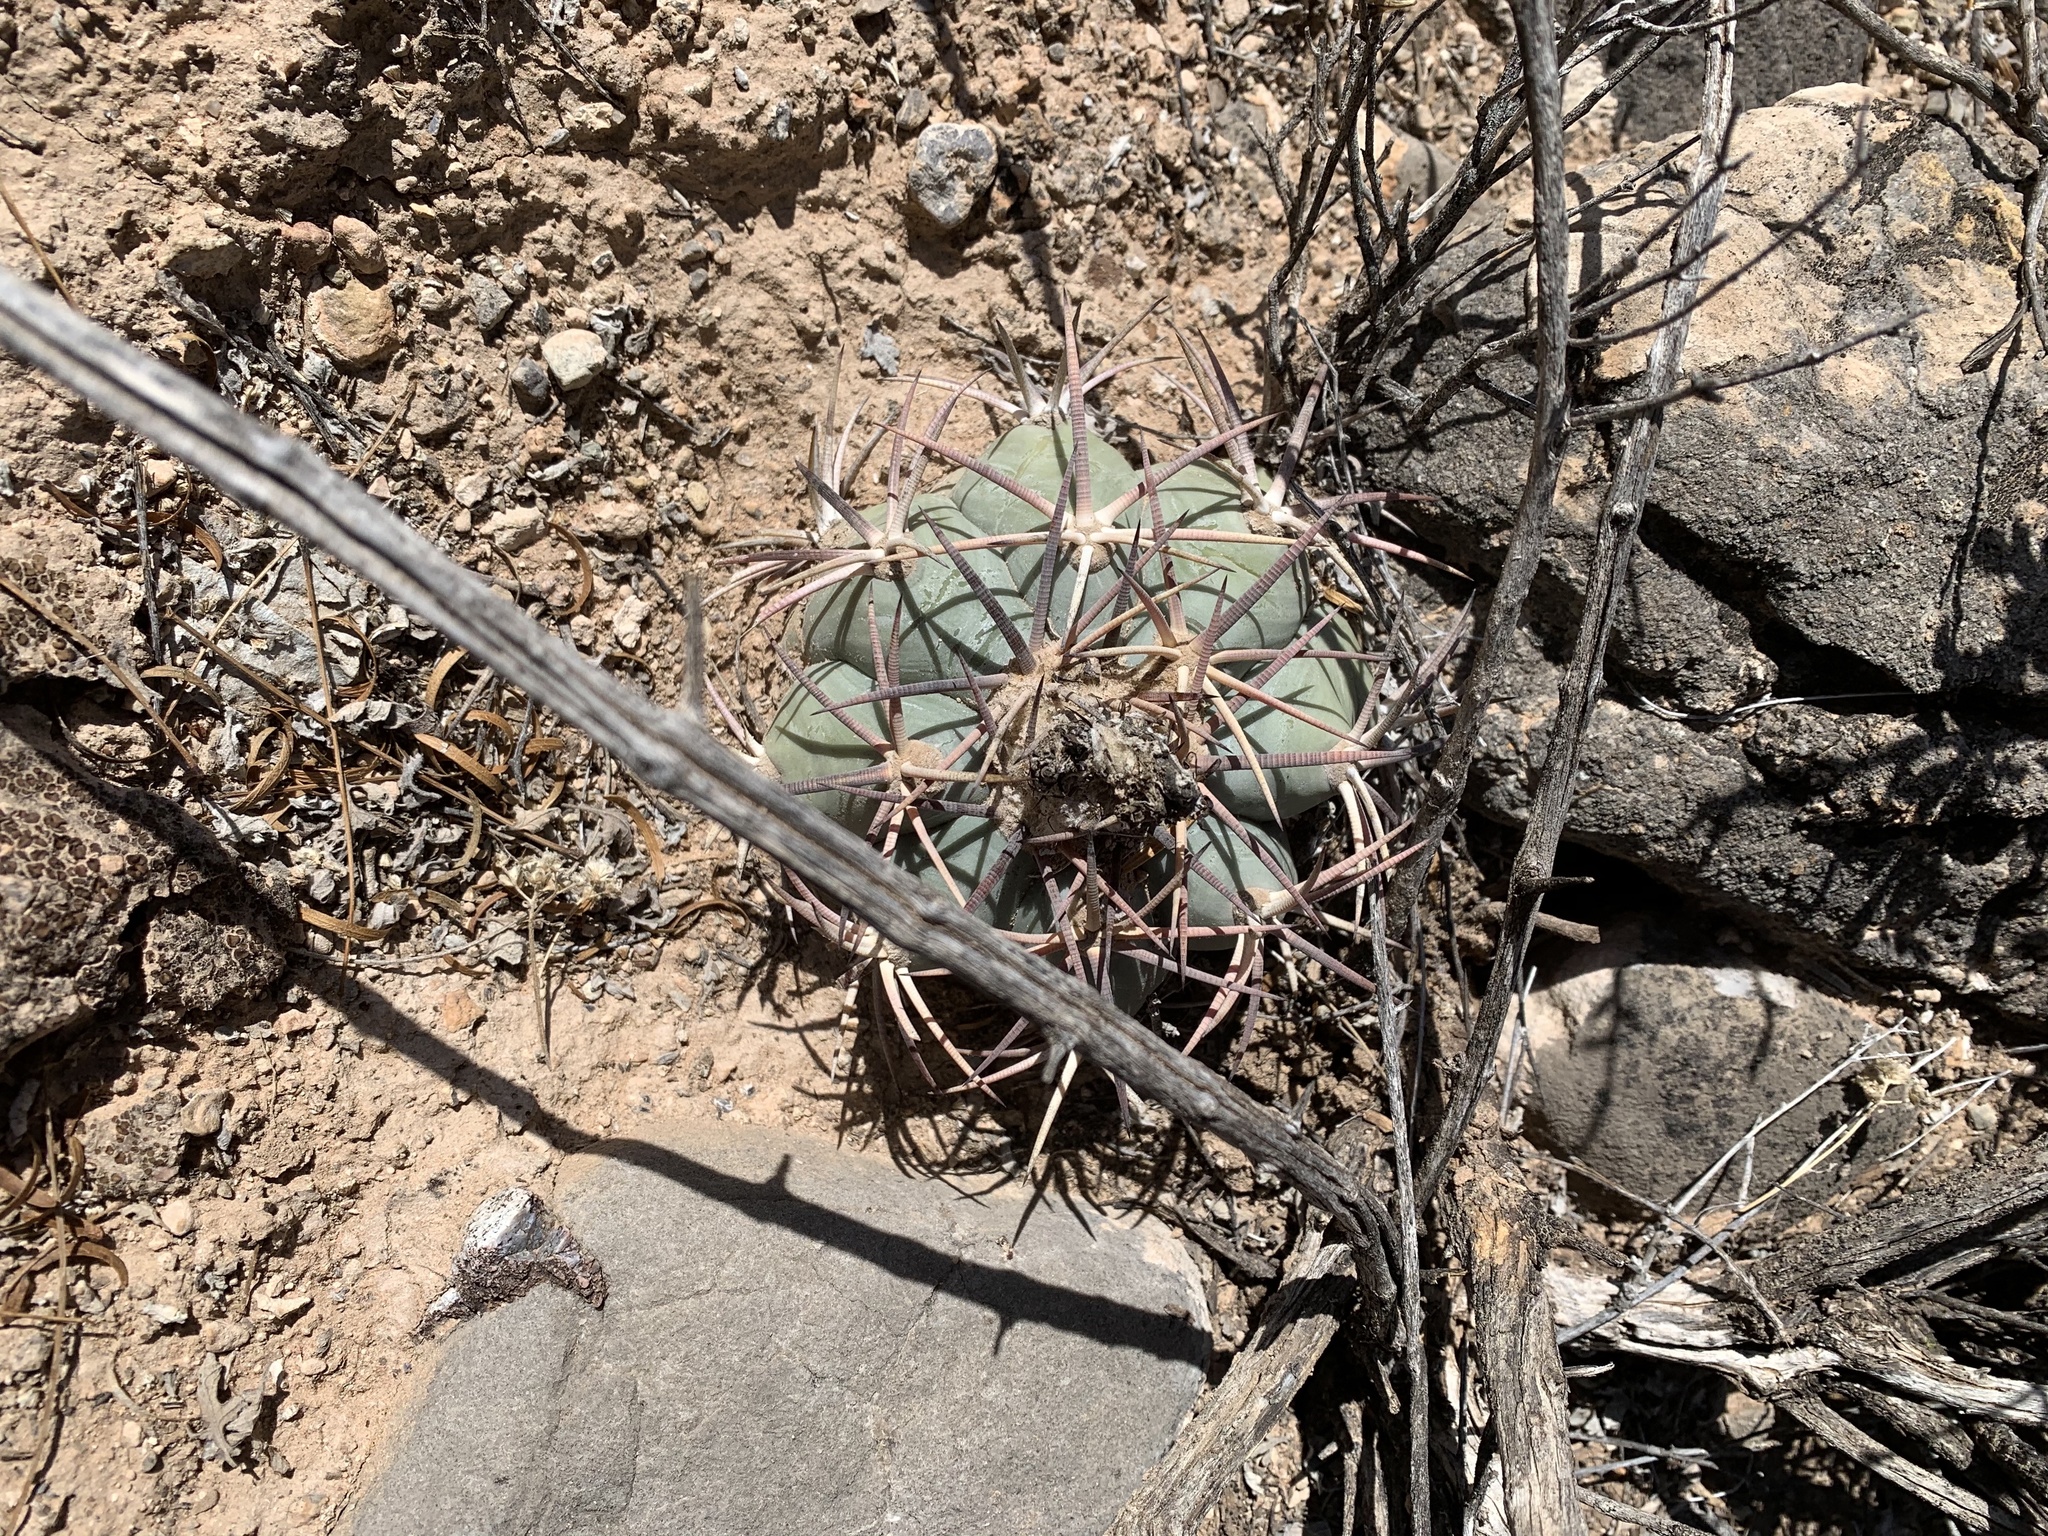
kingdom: Plantae
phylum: Tracheophyta
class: Magnoliopsida
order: Caryophyllales
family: Cactaceae
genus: Echinocactus
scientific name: Echinocactus horizonthalonius
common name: Devilshead
